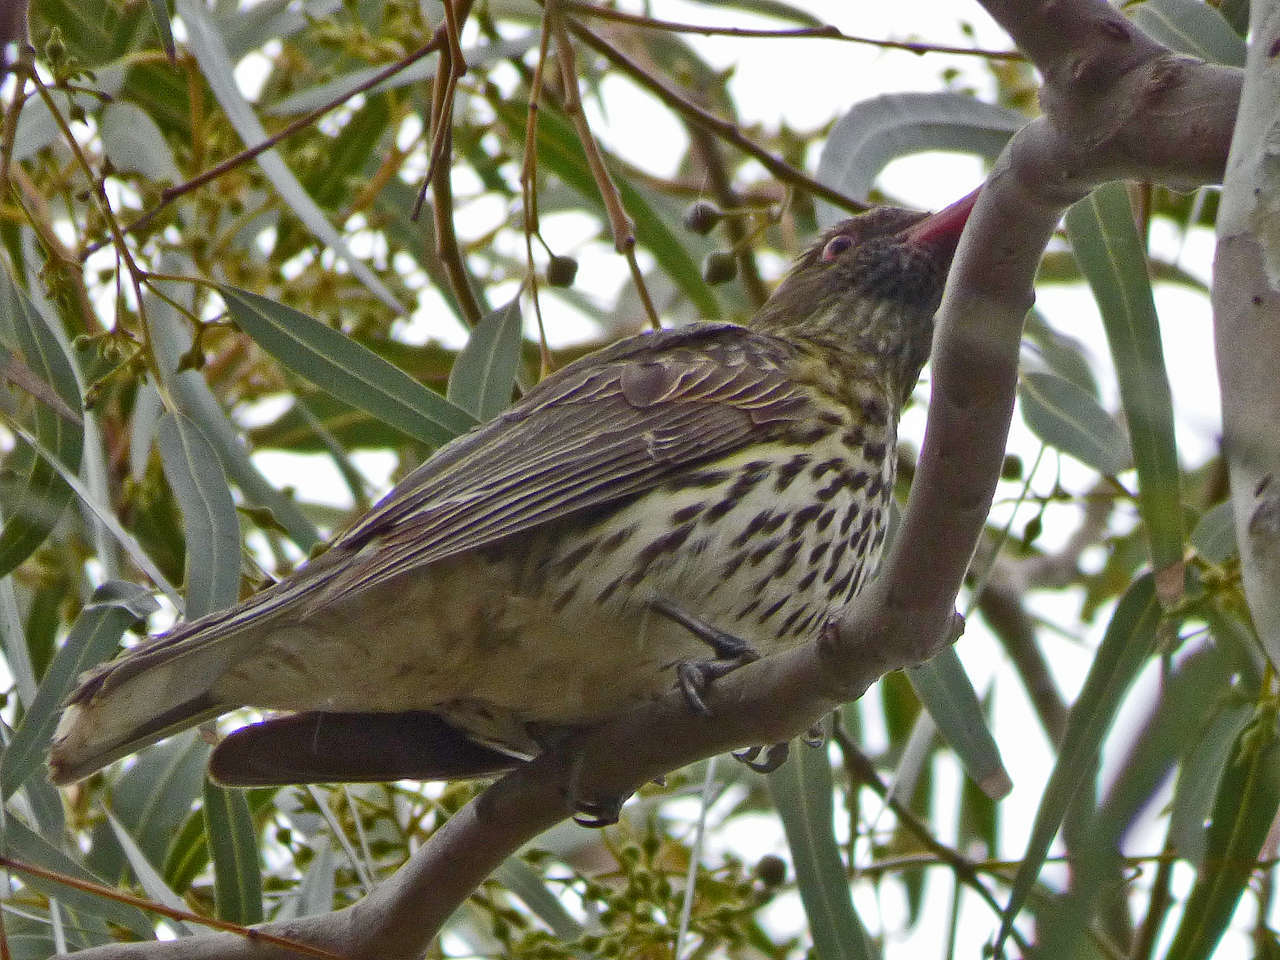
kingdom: Animalia
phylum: Chordata
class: Aves
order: Passeriformes
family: Oriolidae
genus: Oriolus
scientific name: Oriolus sagittatus
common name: Olive-backed oriole
